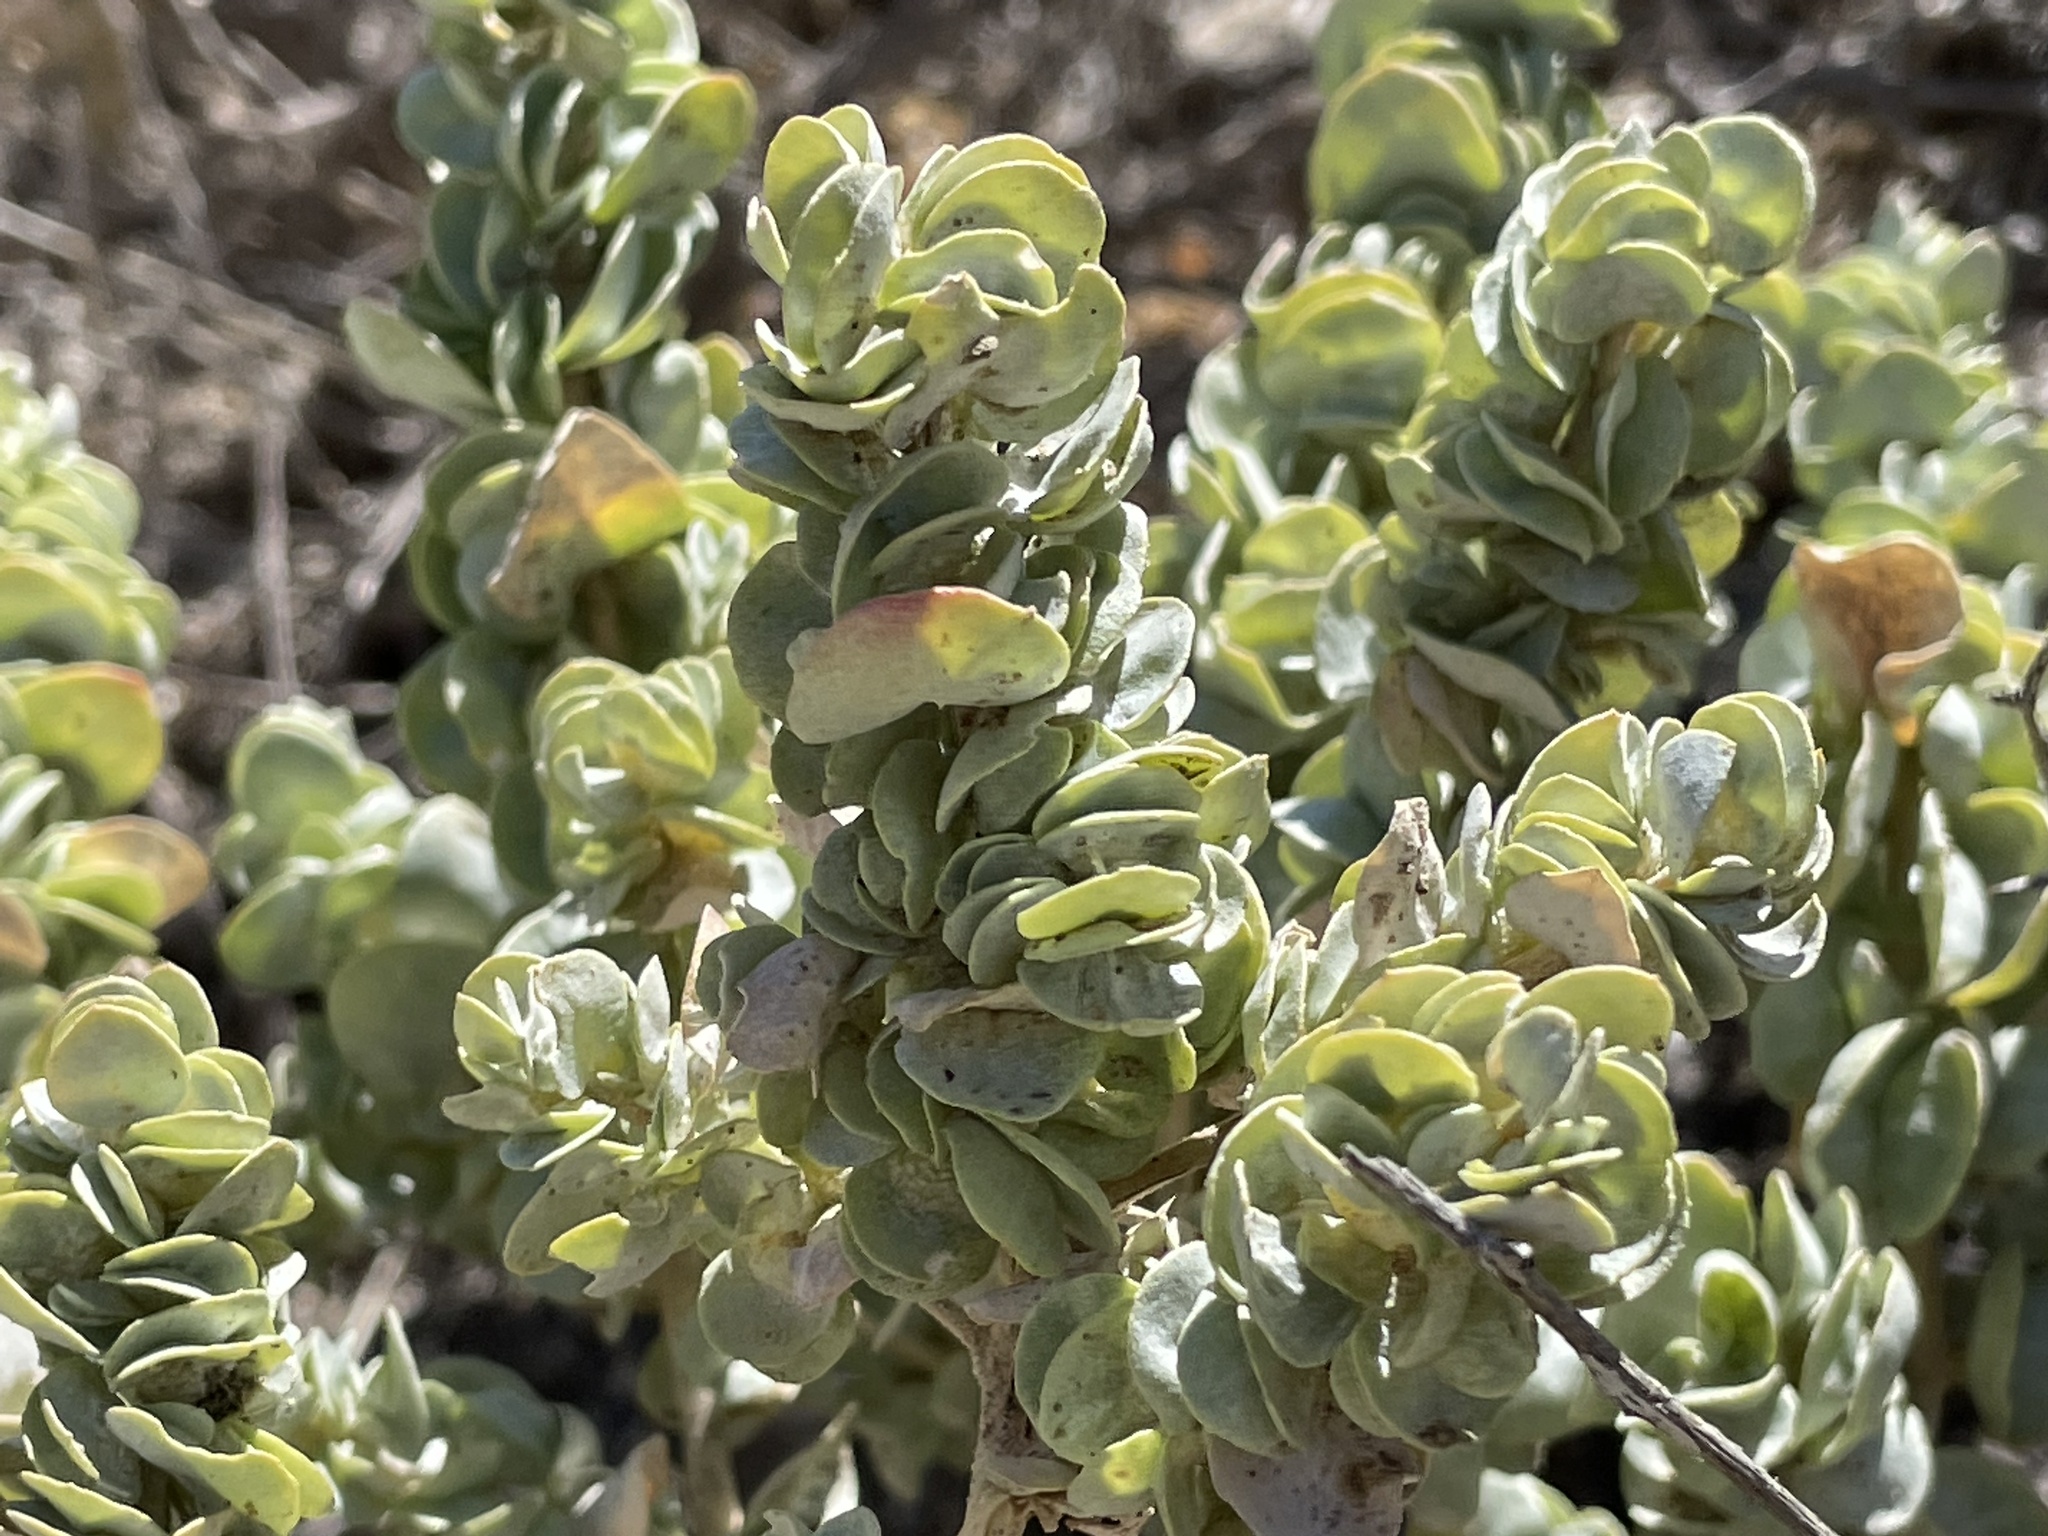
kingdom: Plantae
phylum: Tracheophyta
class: Magnoliopsida
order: Caryophyllales
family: Amaranthaceae
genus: Atriplex
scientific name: Atriplex confertifolia
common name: Shadscale
